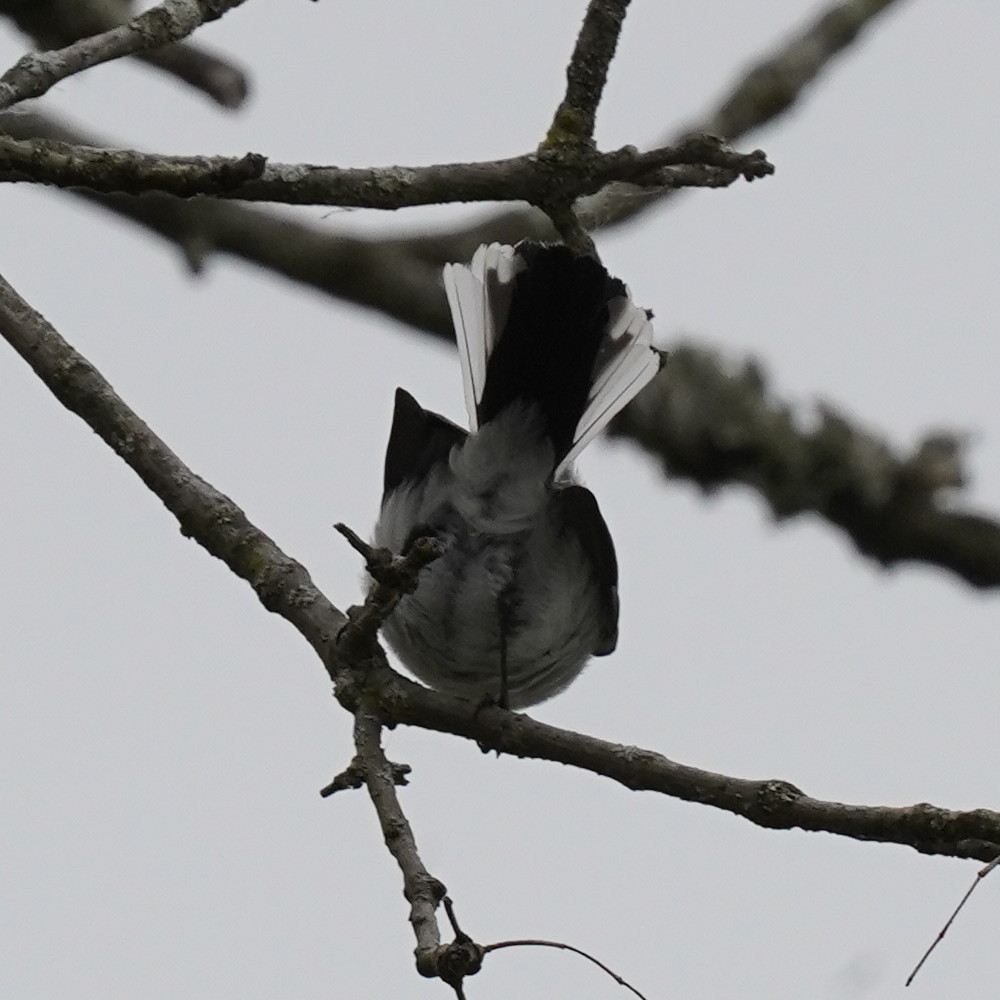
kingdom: Animalia
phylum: Chordata
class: Aves
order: Passeriformes
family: Polioptilidae
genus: Polioptila
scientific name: Polioptila caerulea
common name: Blue-gray gnatcatcher
